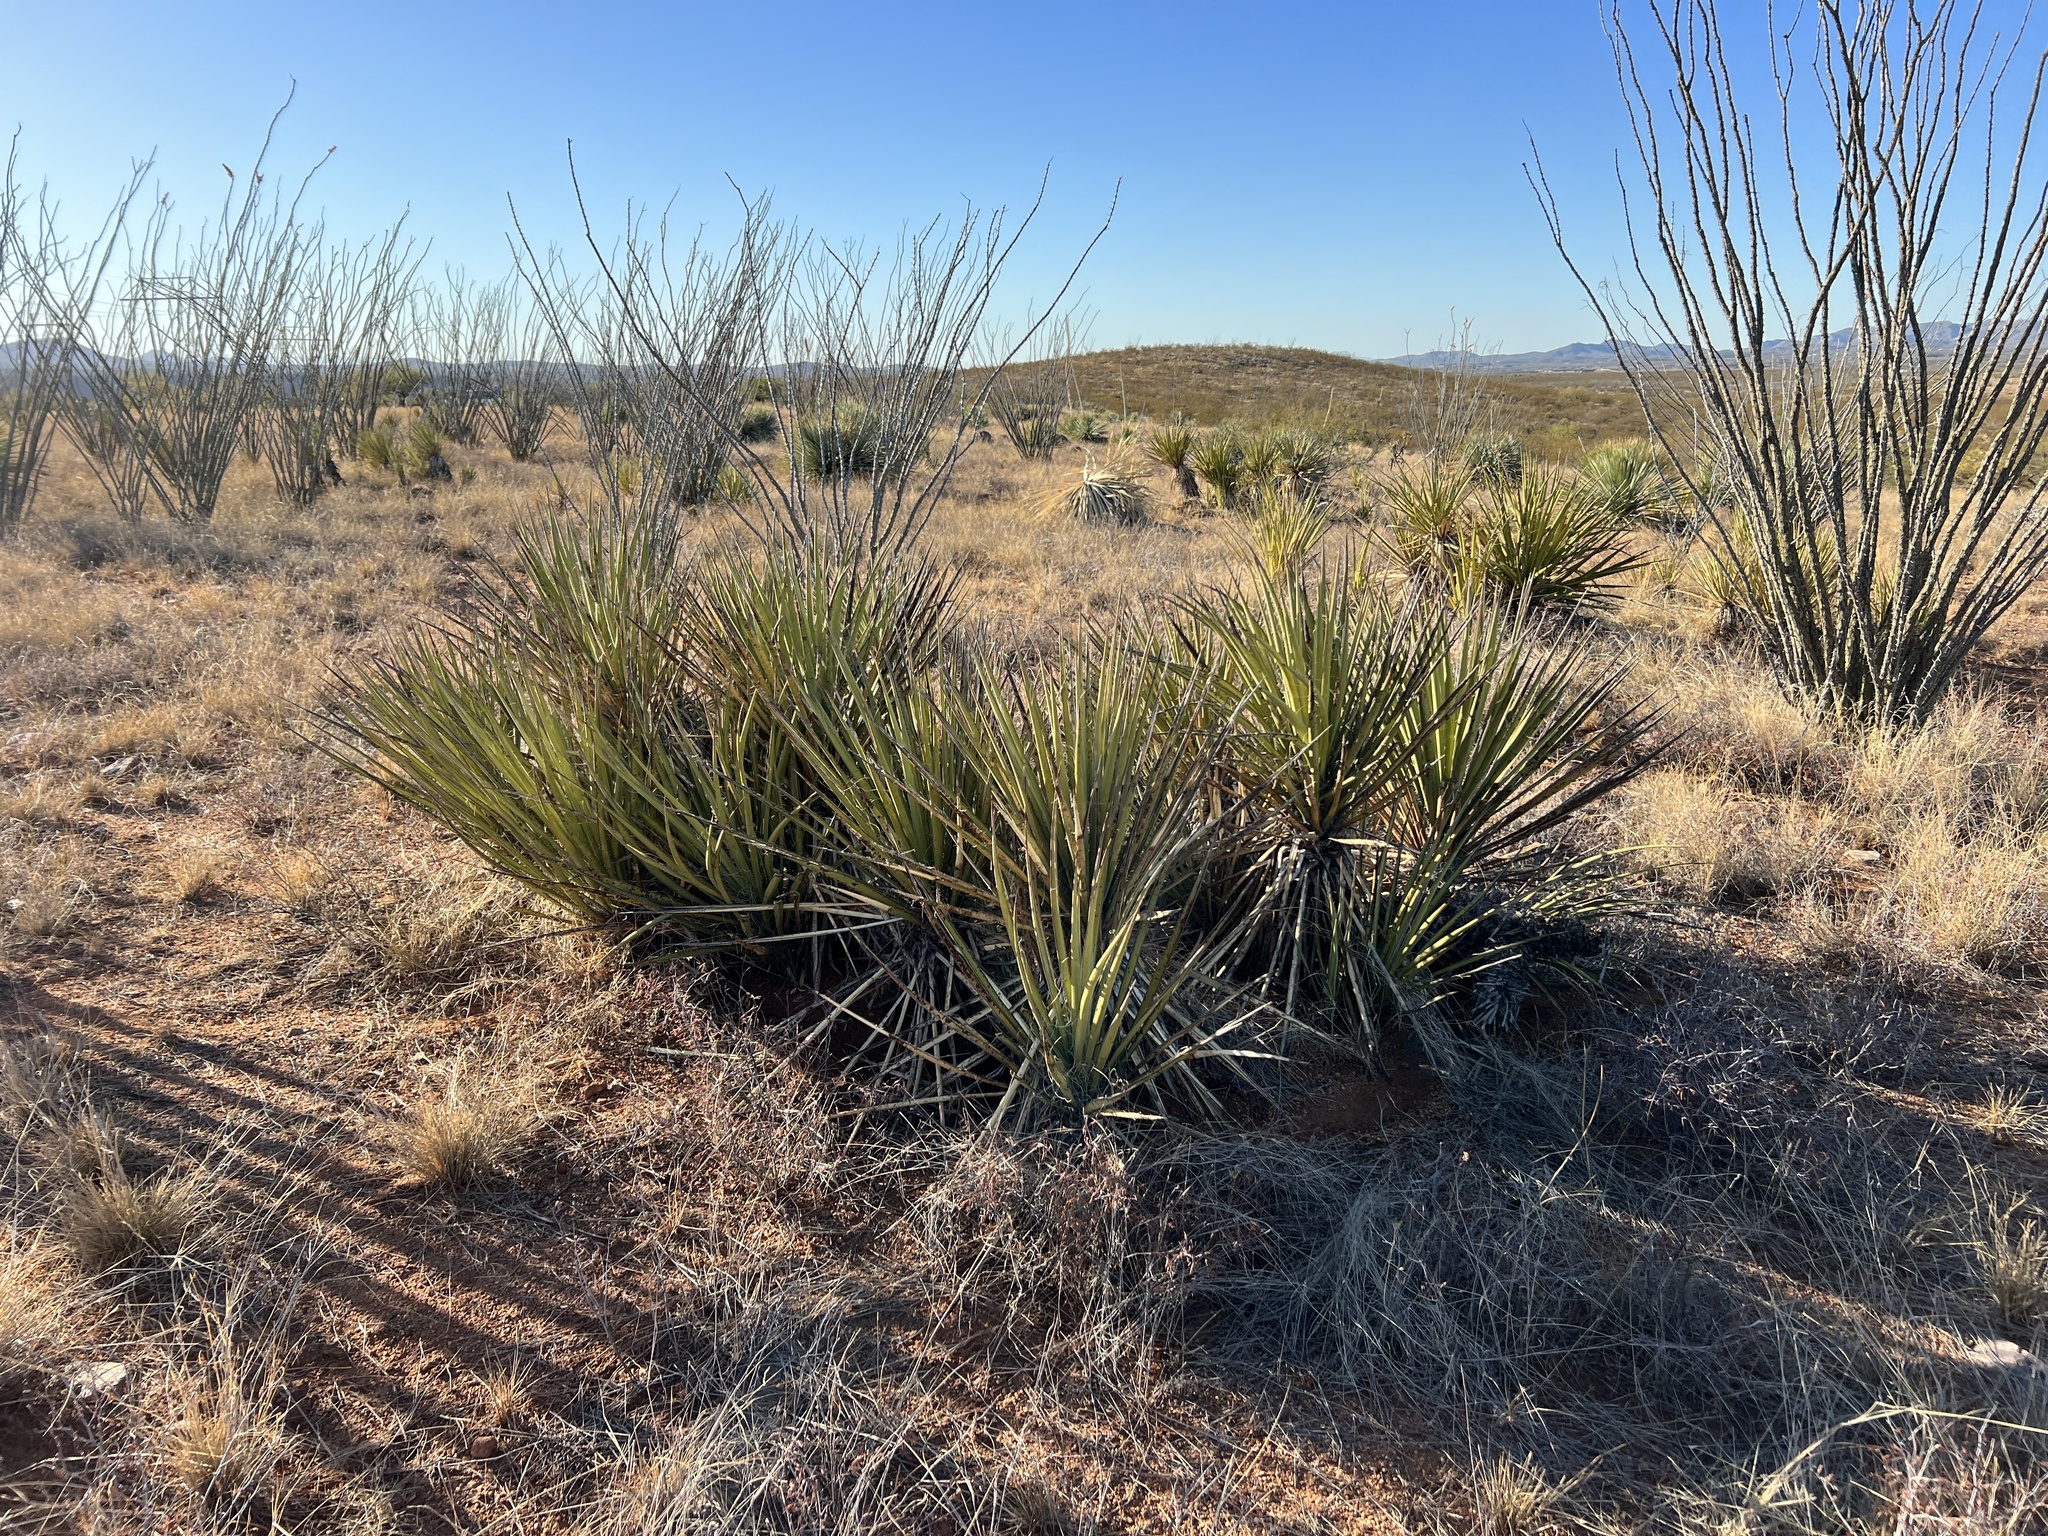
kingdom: Plantae
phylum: Tracheophyta
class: Liliopsida
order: Asparagales
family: Asparagaceae
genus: Yucca
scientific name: Yucca baccata
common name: Banana yucca
